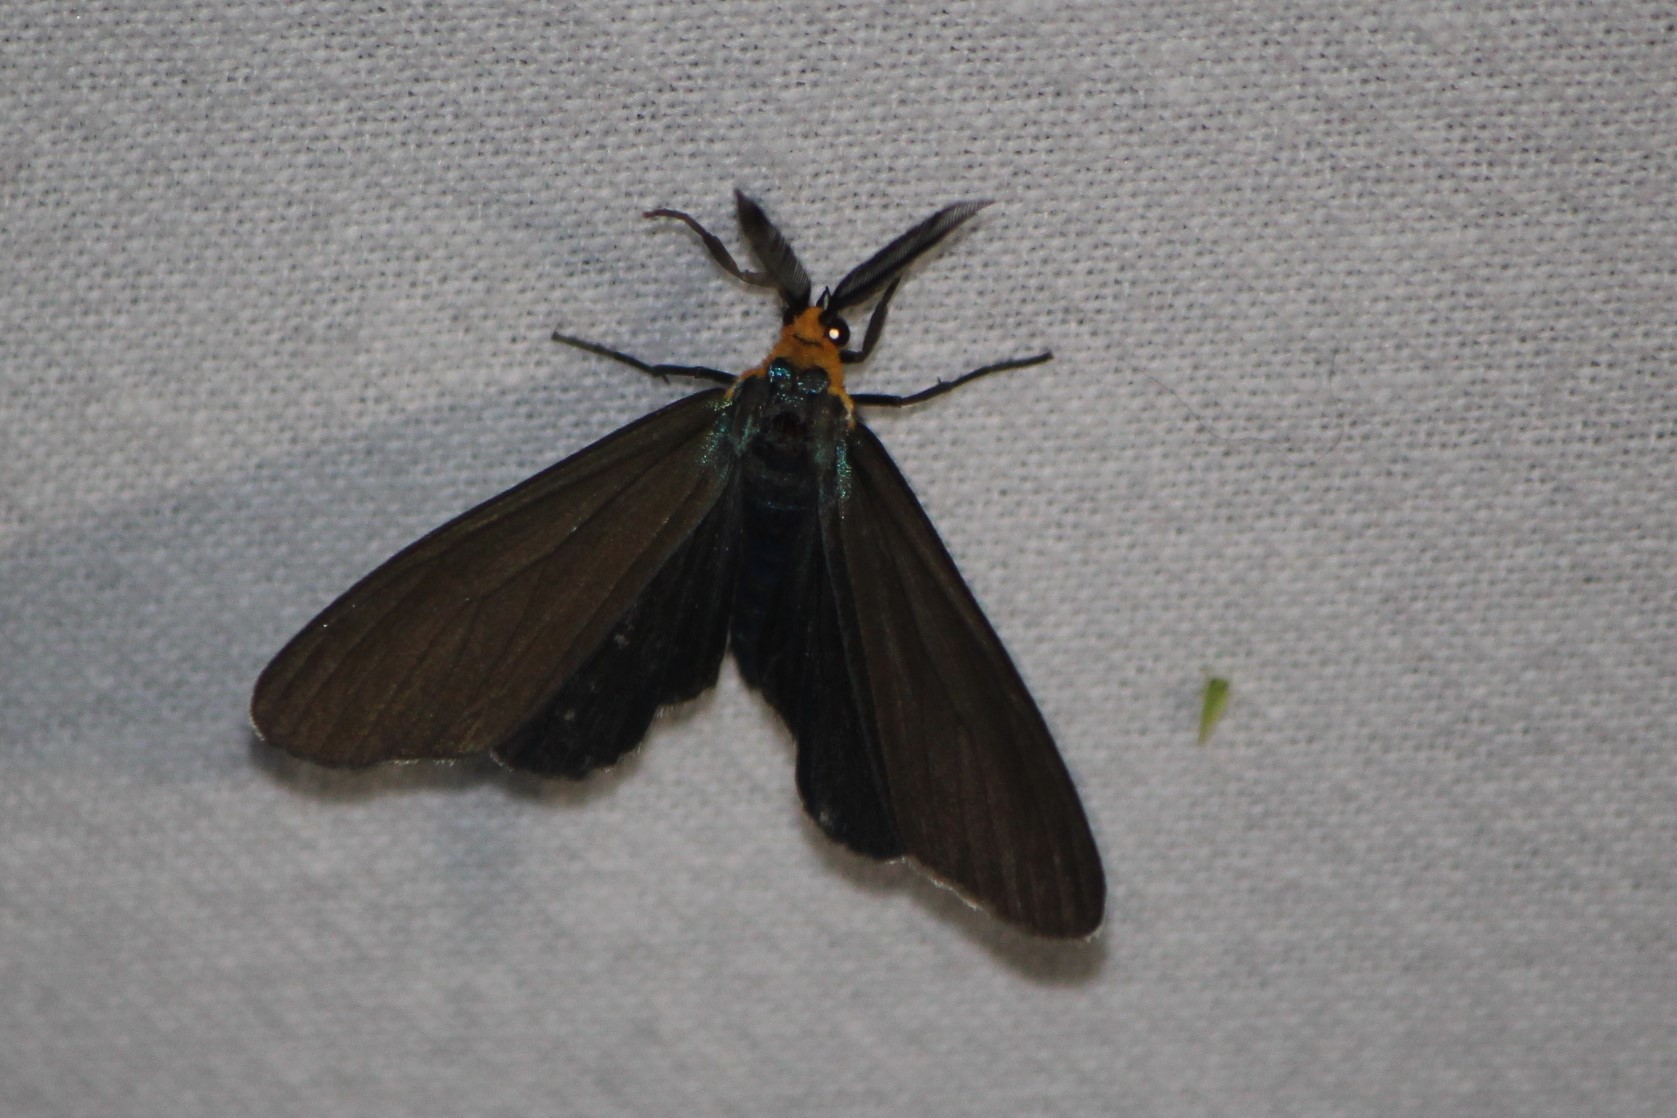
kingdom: Animalia
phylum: Arthropoda
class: Insecta
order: Lepidoptera
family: Erebidae
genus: Ctenucha
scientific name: Ctenucha virginica
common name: Virginia ctenucha moth
